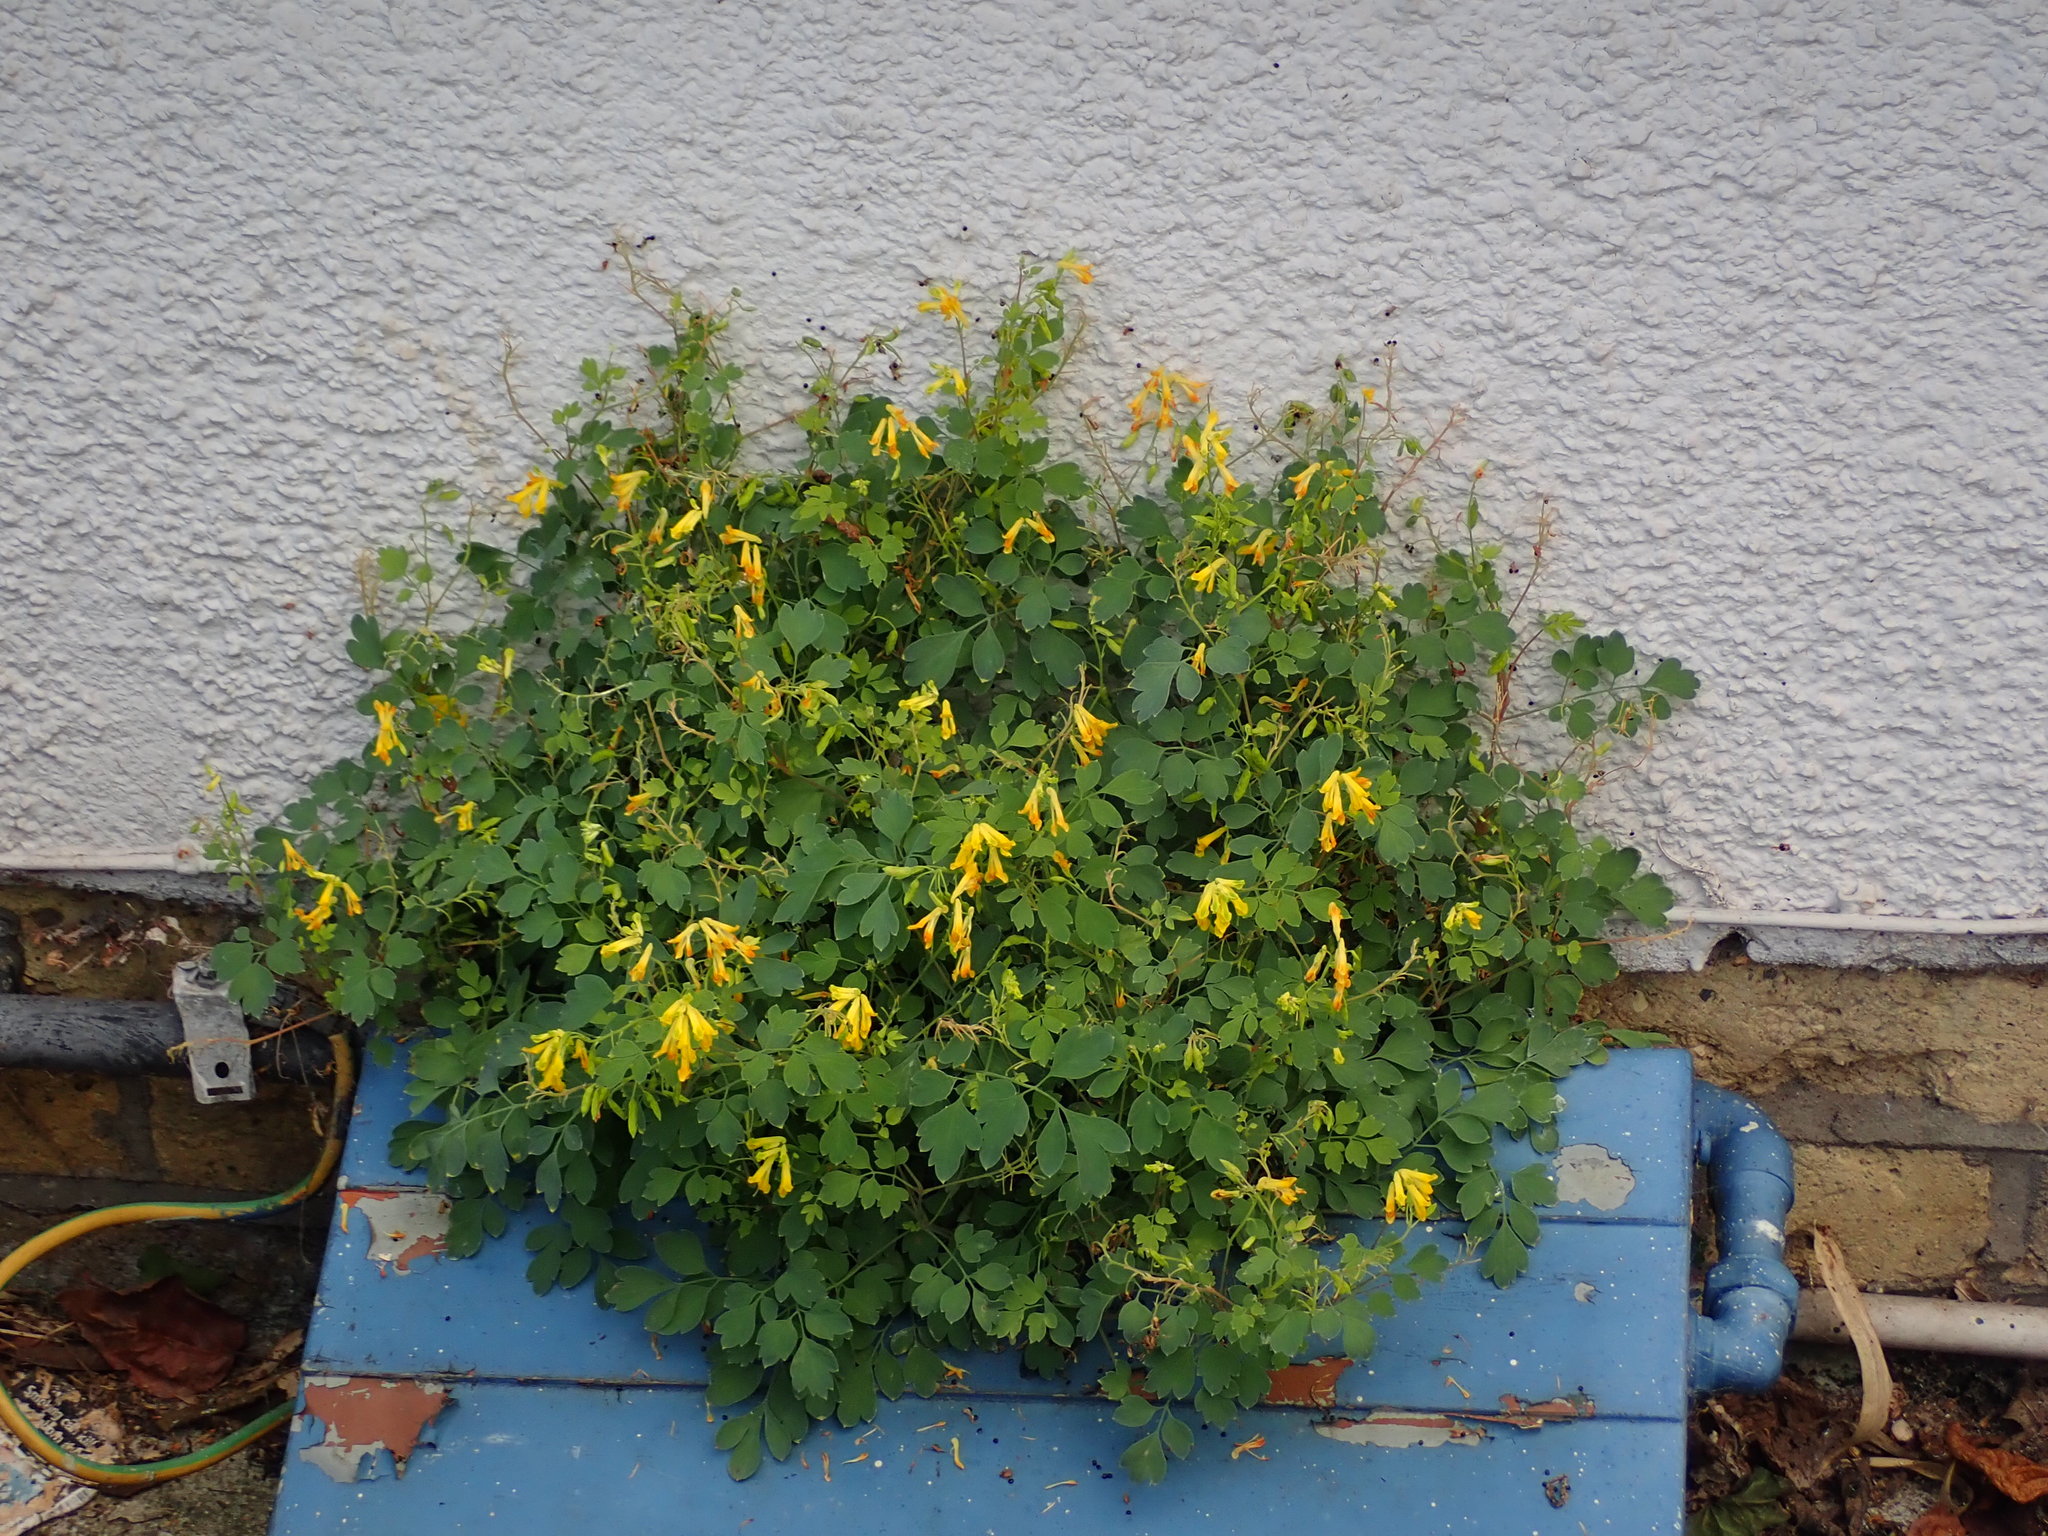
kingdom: Plantae
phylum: Tracheophyta
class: Magnoliopsida
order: Ranunculales
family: Papaveraceae
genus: Pseudofumaria
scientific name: Pseudofumaria lutea
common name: Yellow corydalis
